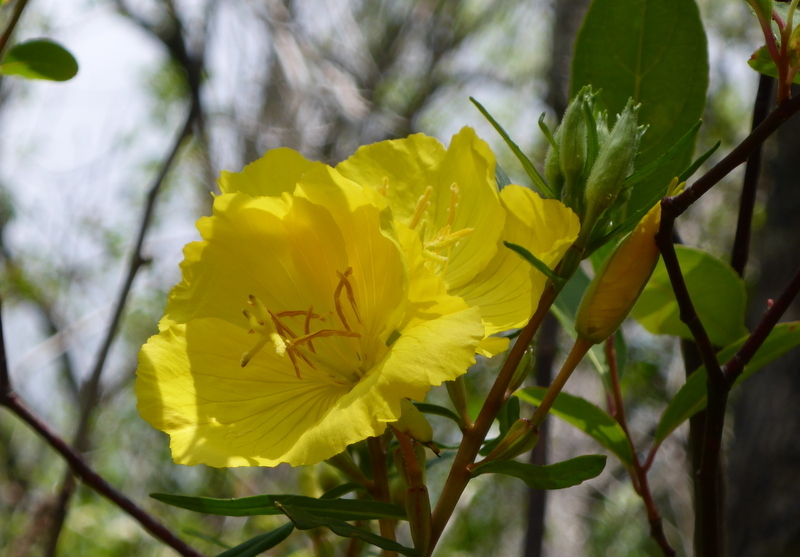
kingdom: Plantae
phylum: Tracheophyta
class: Magnoliopsida
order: Myrtales
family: Onagraceae
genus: Oenothera
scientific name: Oenothera fruticosa
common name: Southern sundrops
